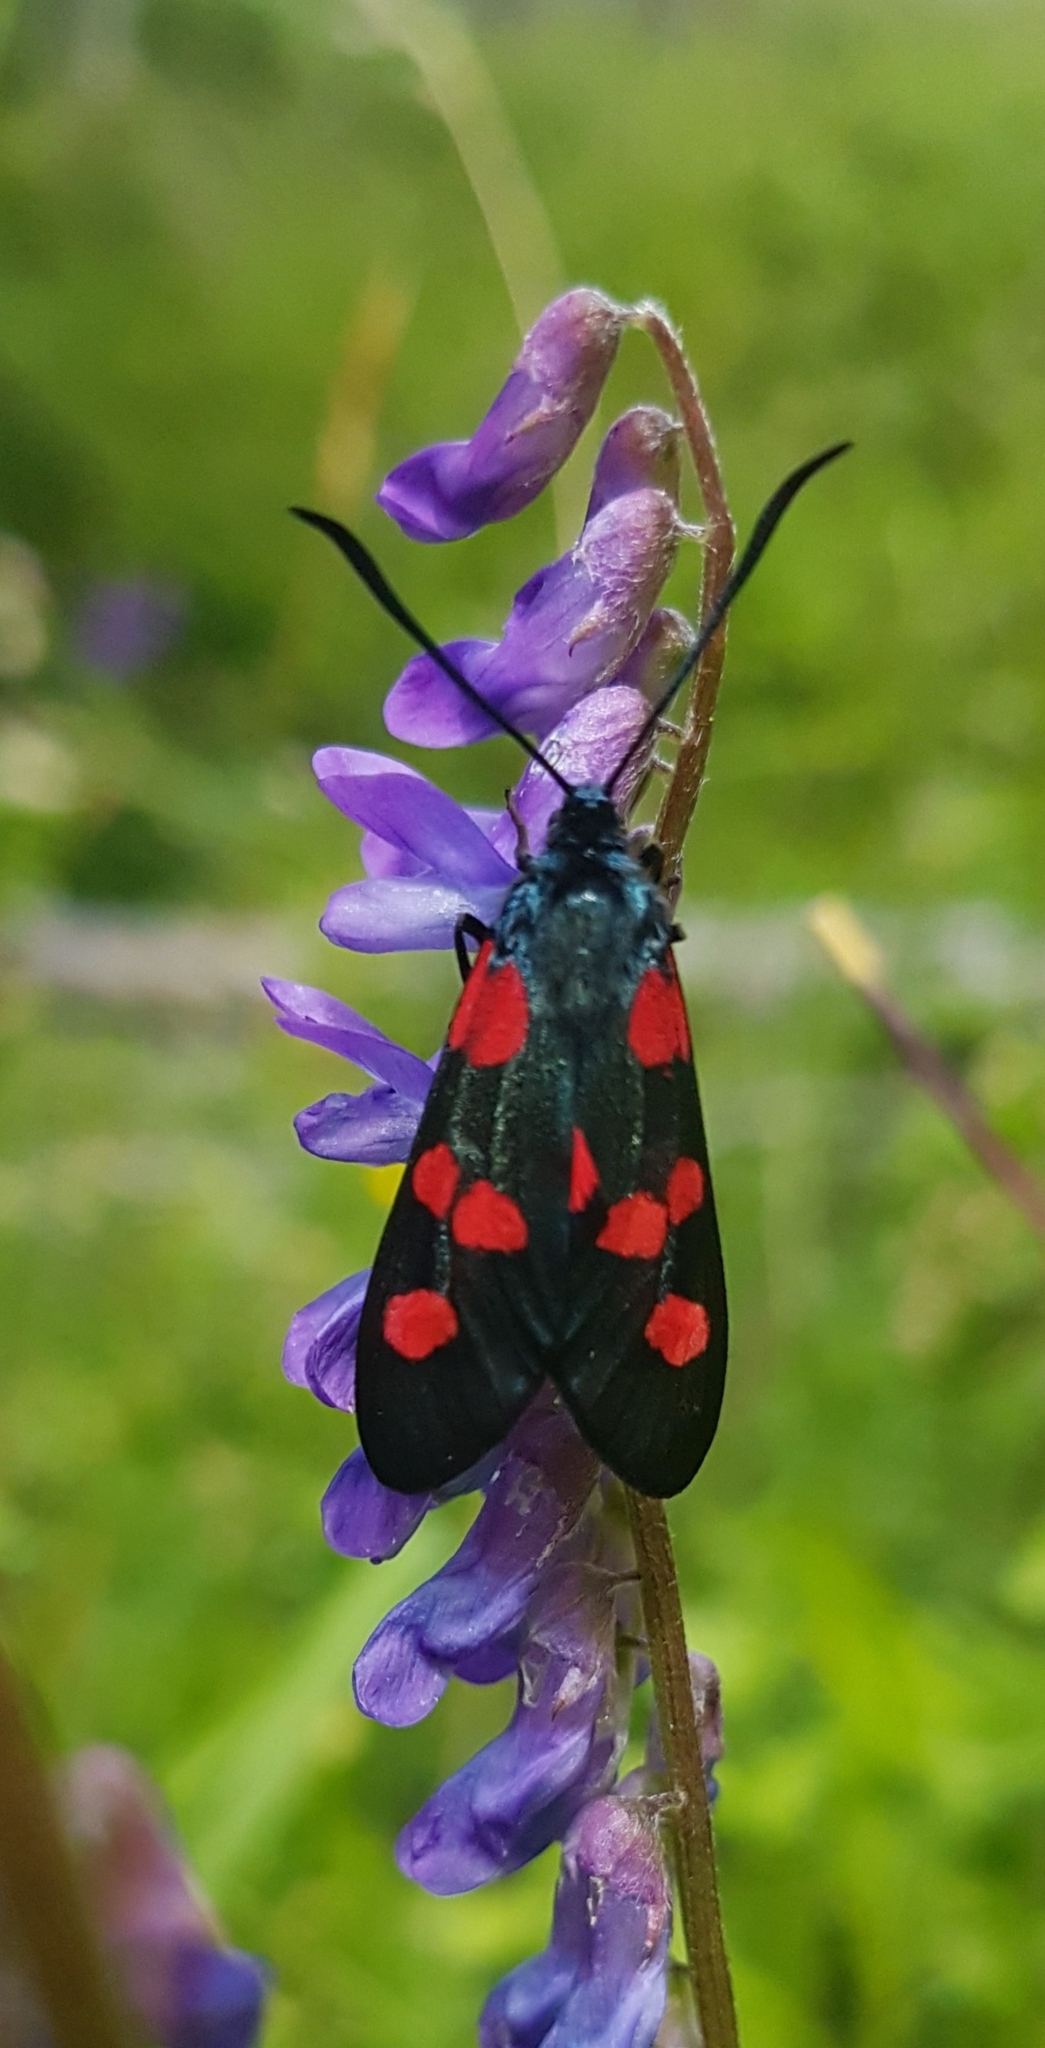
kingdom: Animalia
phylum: Arthropoda
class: Insecta
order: Lepidoptera
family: Zygaenidae
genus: Zygaena
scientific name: Zygaena lonicerae
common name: Narrow-bordered five-spot burnet
